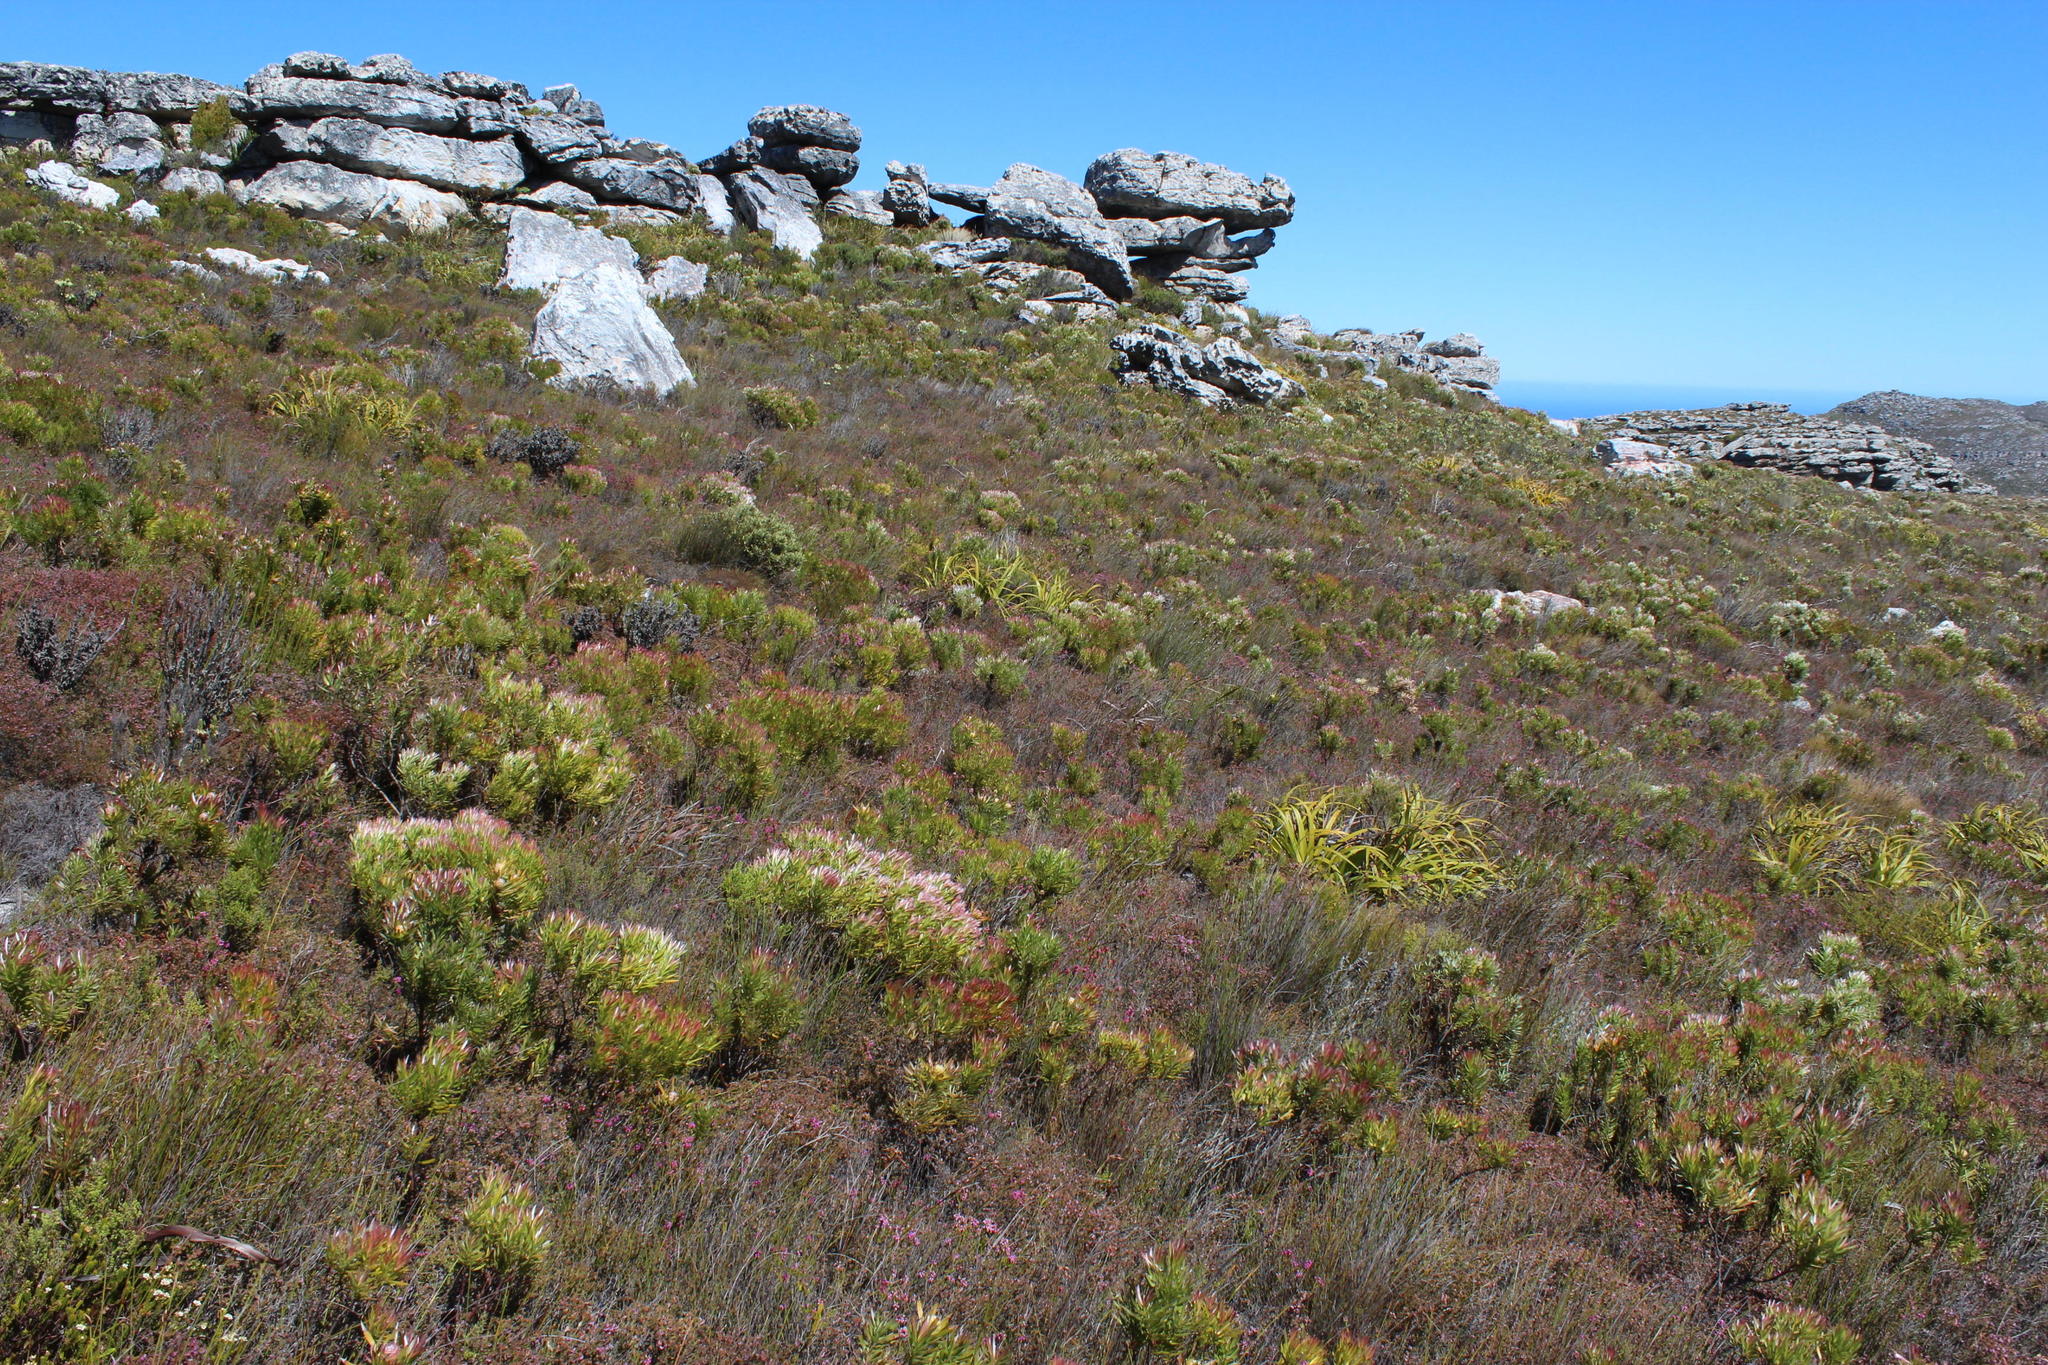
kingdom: Plantae
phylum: Tracheophyta
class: Magnoliopsida
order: Proteales
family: Proteaceae
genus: Leucadendron
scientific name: Leucadendron xanthoconus
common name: Sickle-leaf conebush
